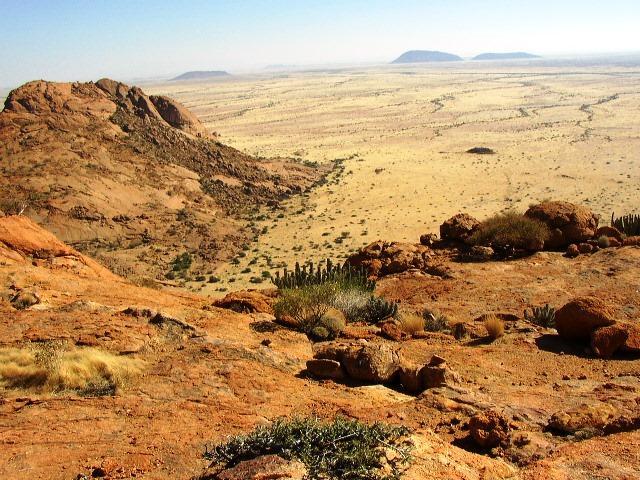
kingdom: Plantae
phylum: Tracheophyta
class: Magnoliopsida
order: Malpighiales
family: Euphorbiaceae
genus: Euphorbia
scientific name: Euphorbia virosa
